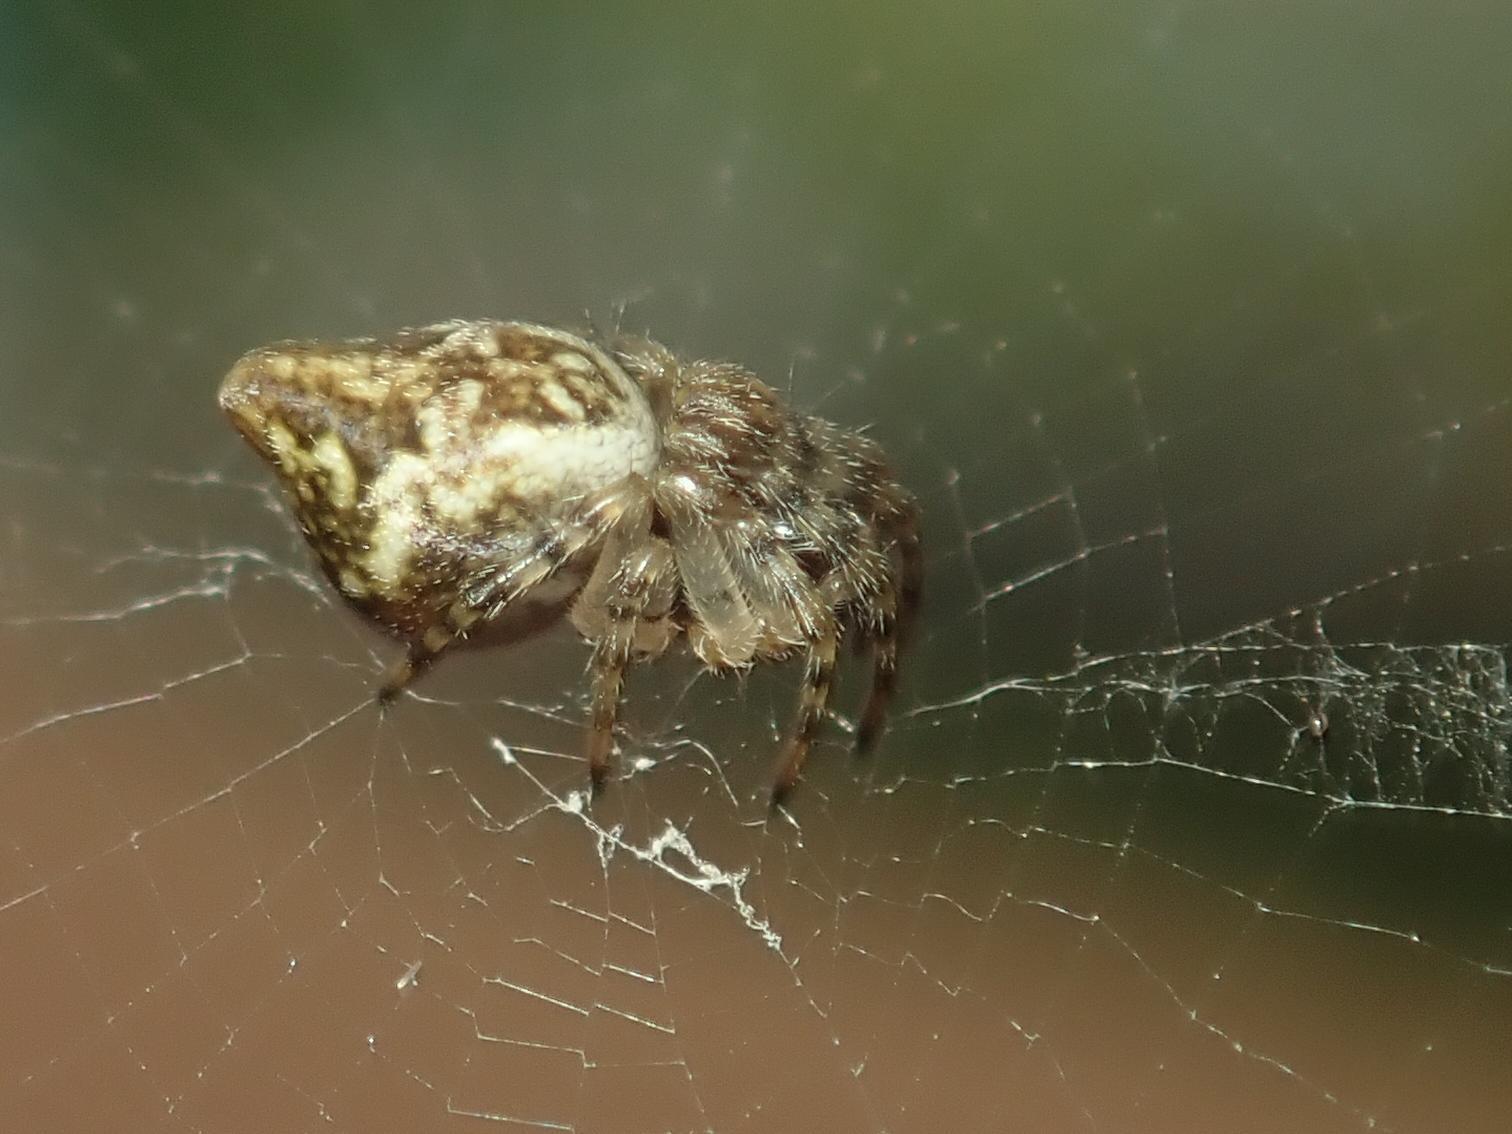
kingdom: Animalia
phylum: Arthropoda
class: Arachnida
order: Araneae
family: Araneidae
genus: Cyclosa
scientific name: Cyclosa conica
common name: Conical trashline orbweaver
